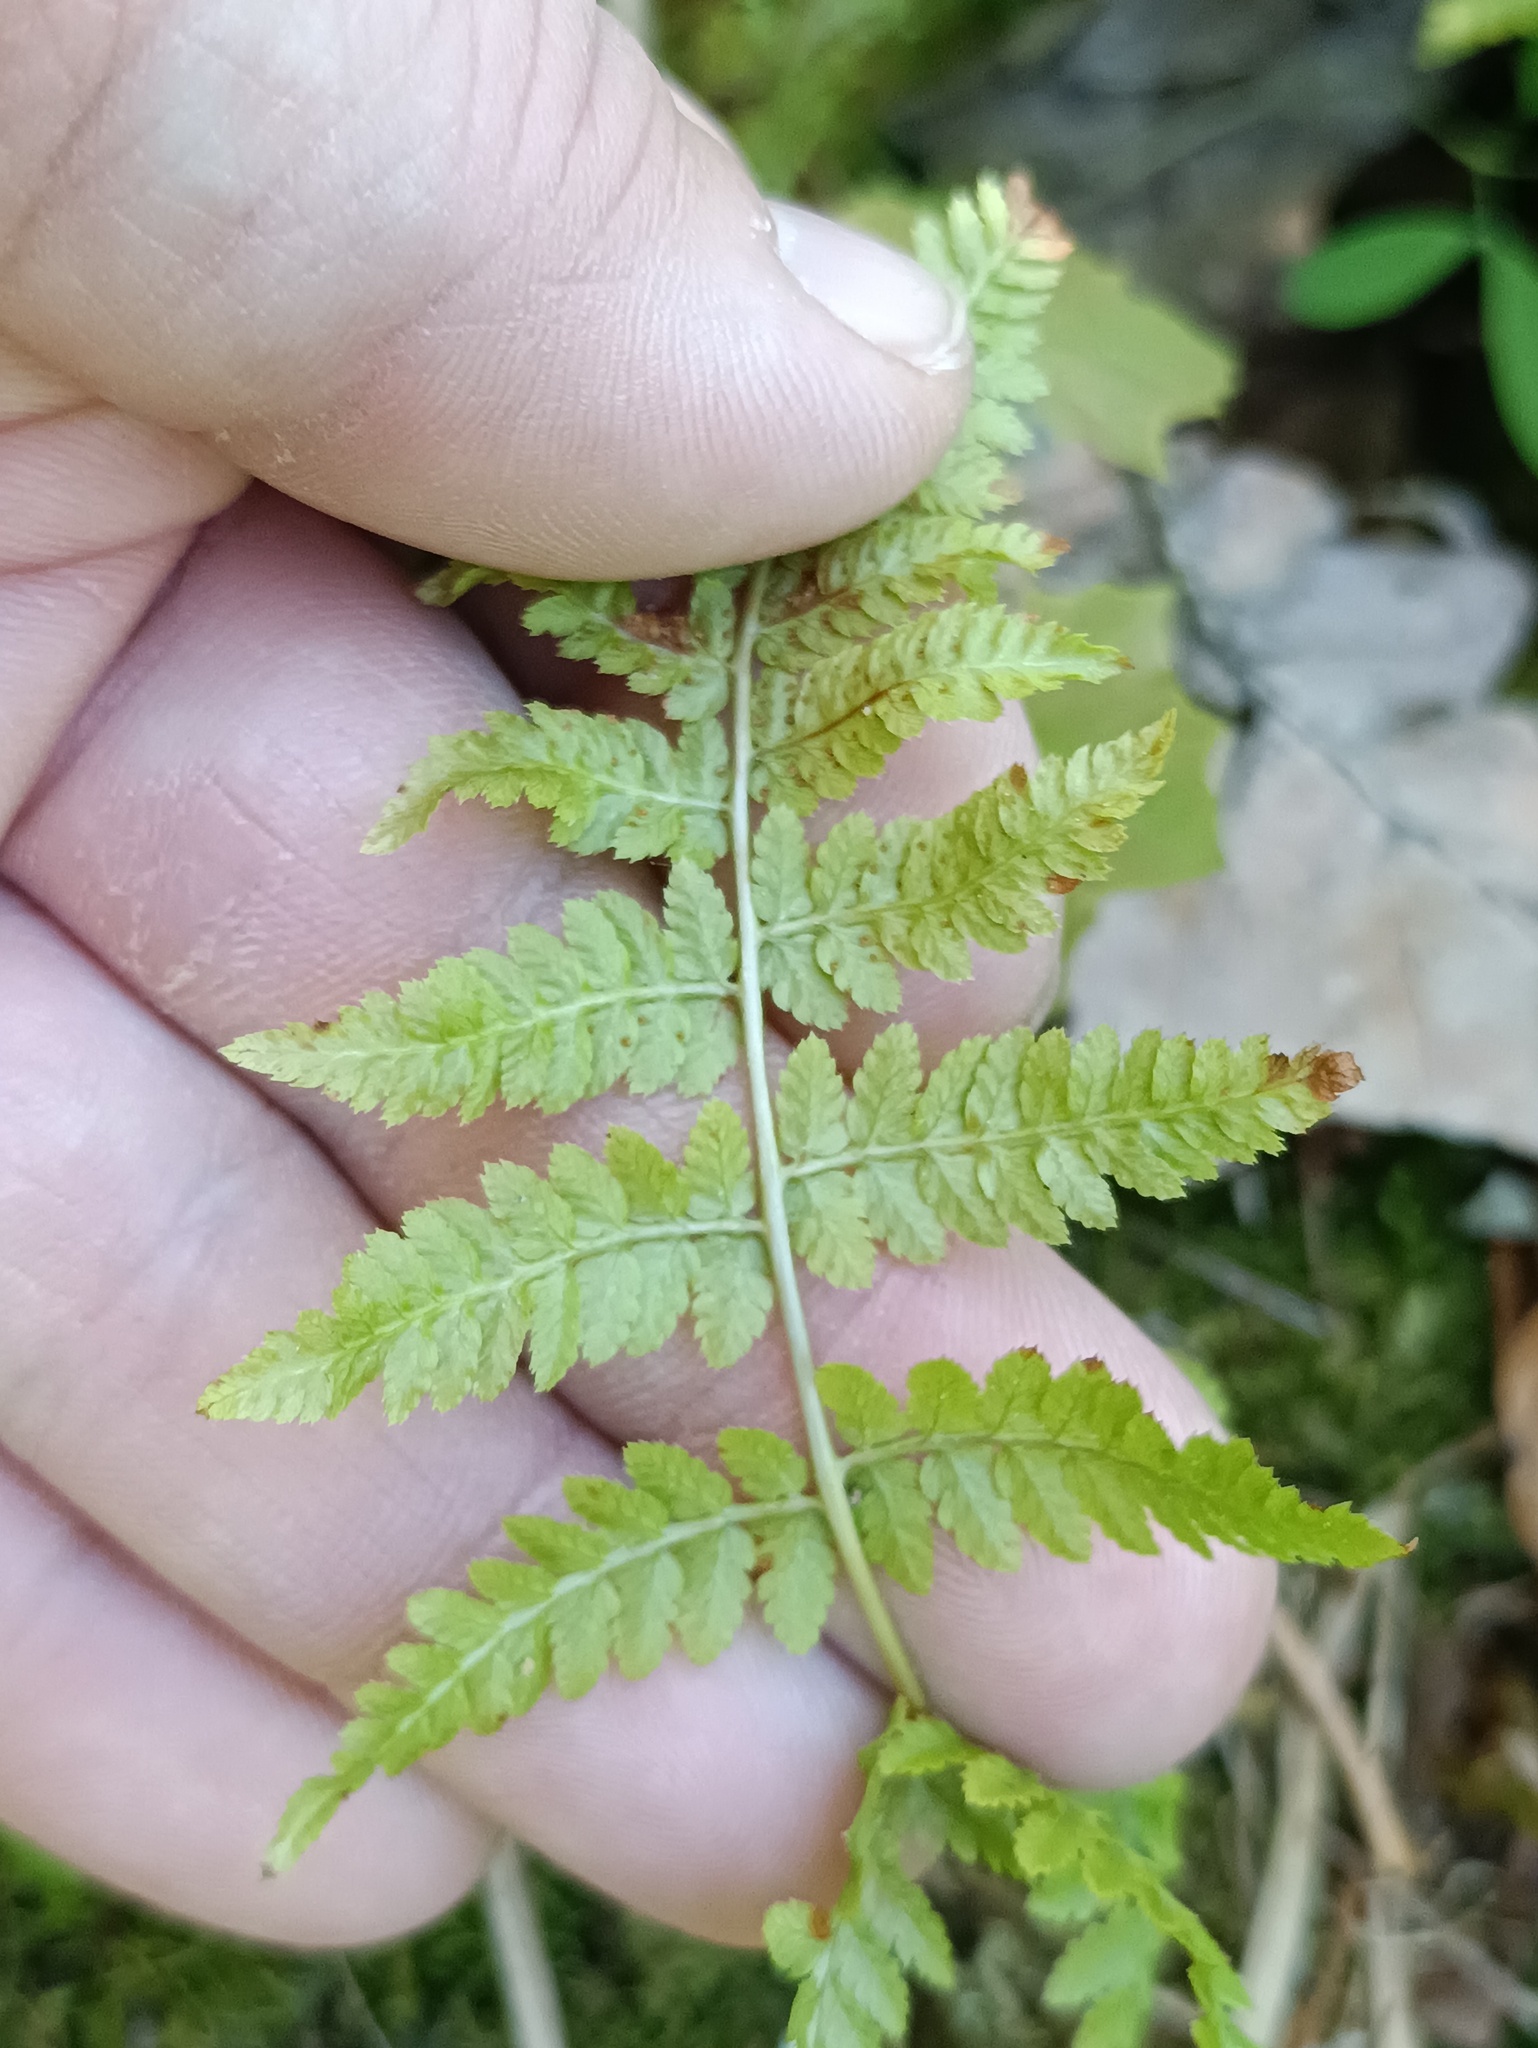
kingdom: Plantae
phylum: Tracheophyta
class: Polypodiopsida
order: Polypodiales
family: Dryopteridaceae
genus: Dryopteris
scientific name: Dryopteris carthusiana
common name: Narrow buckler-fern
